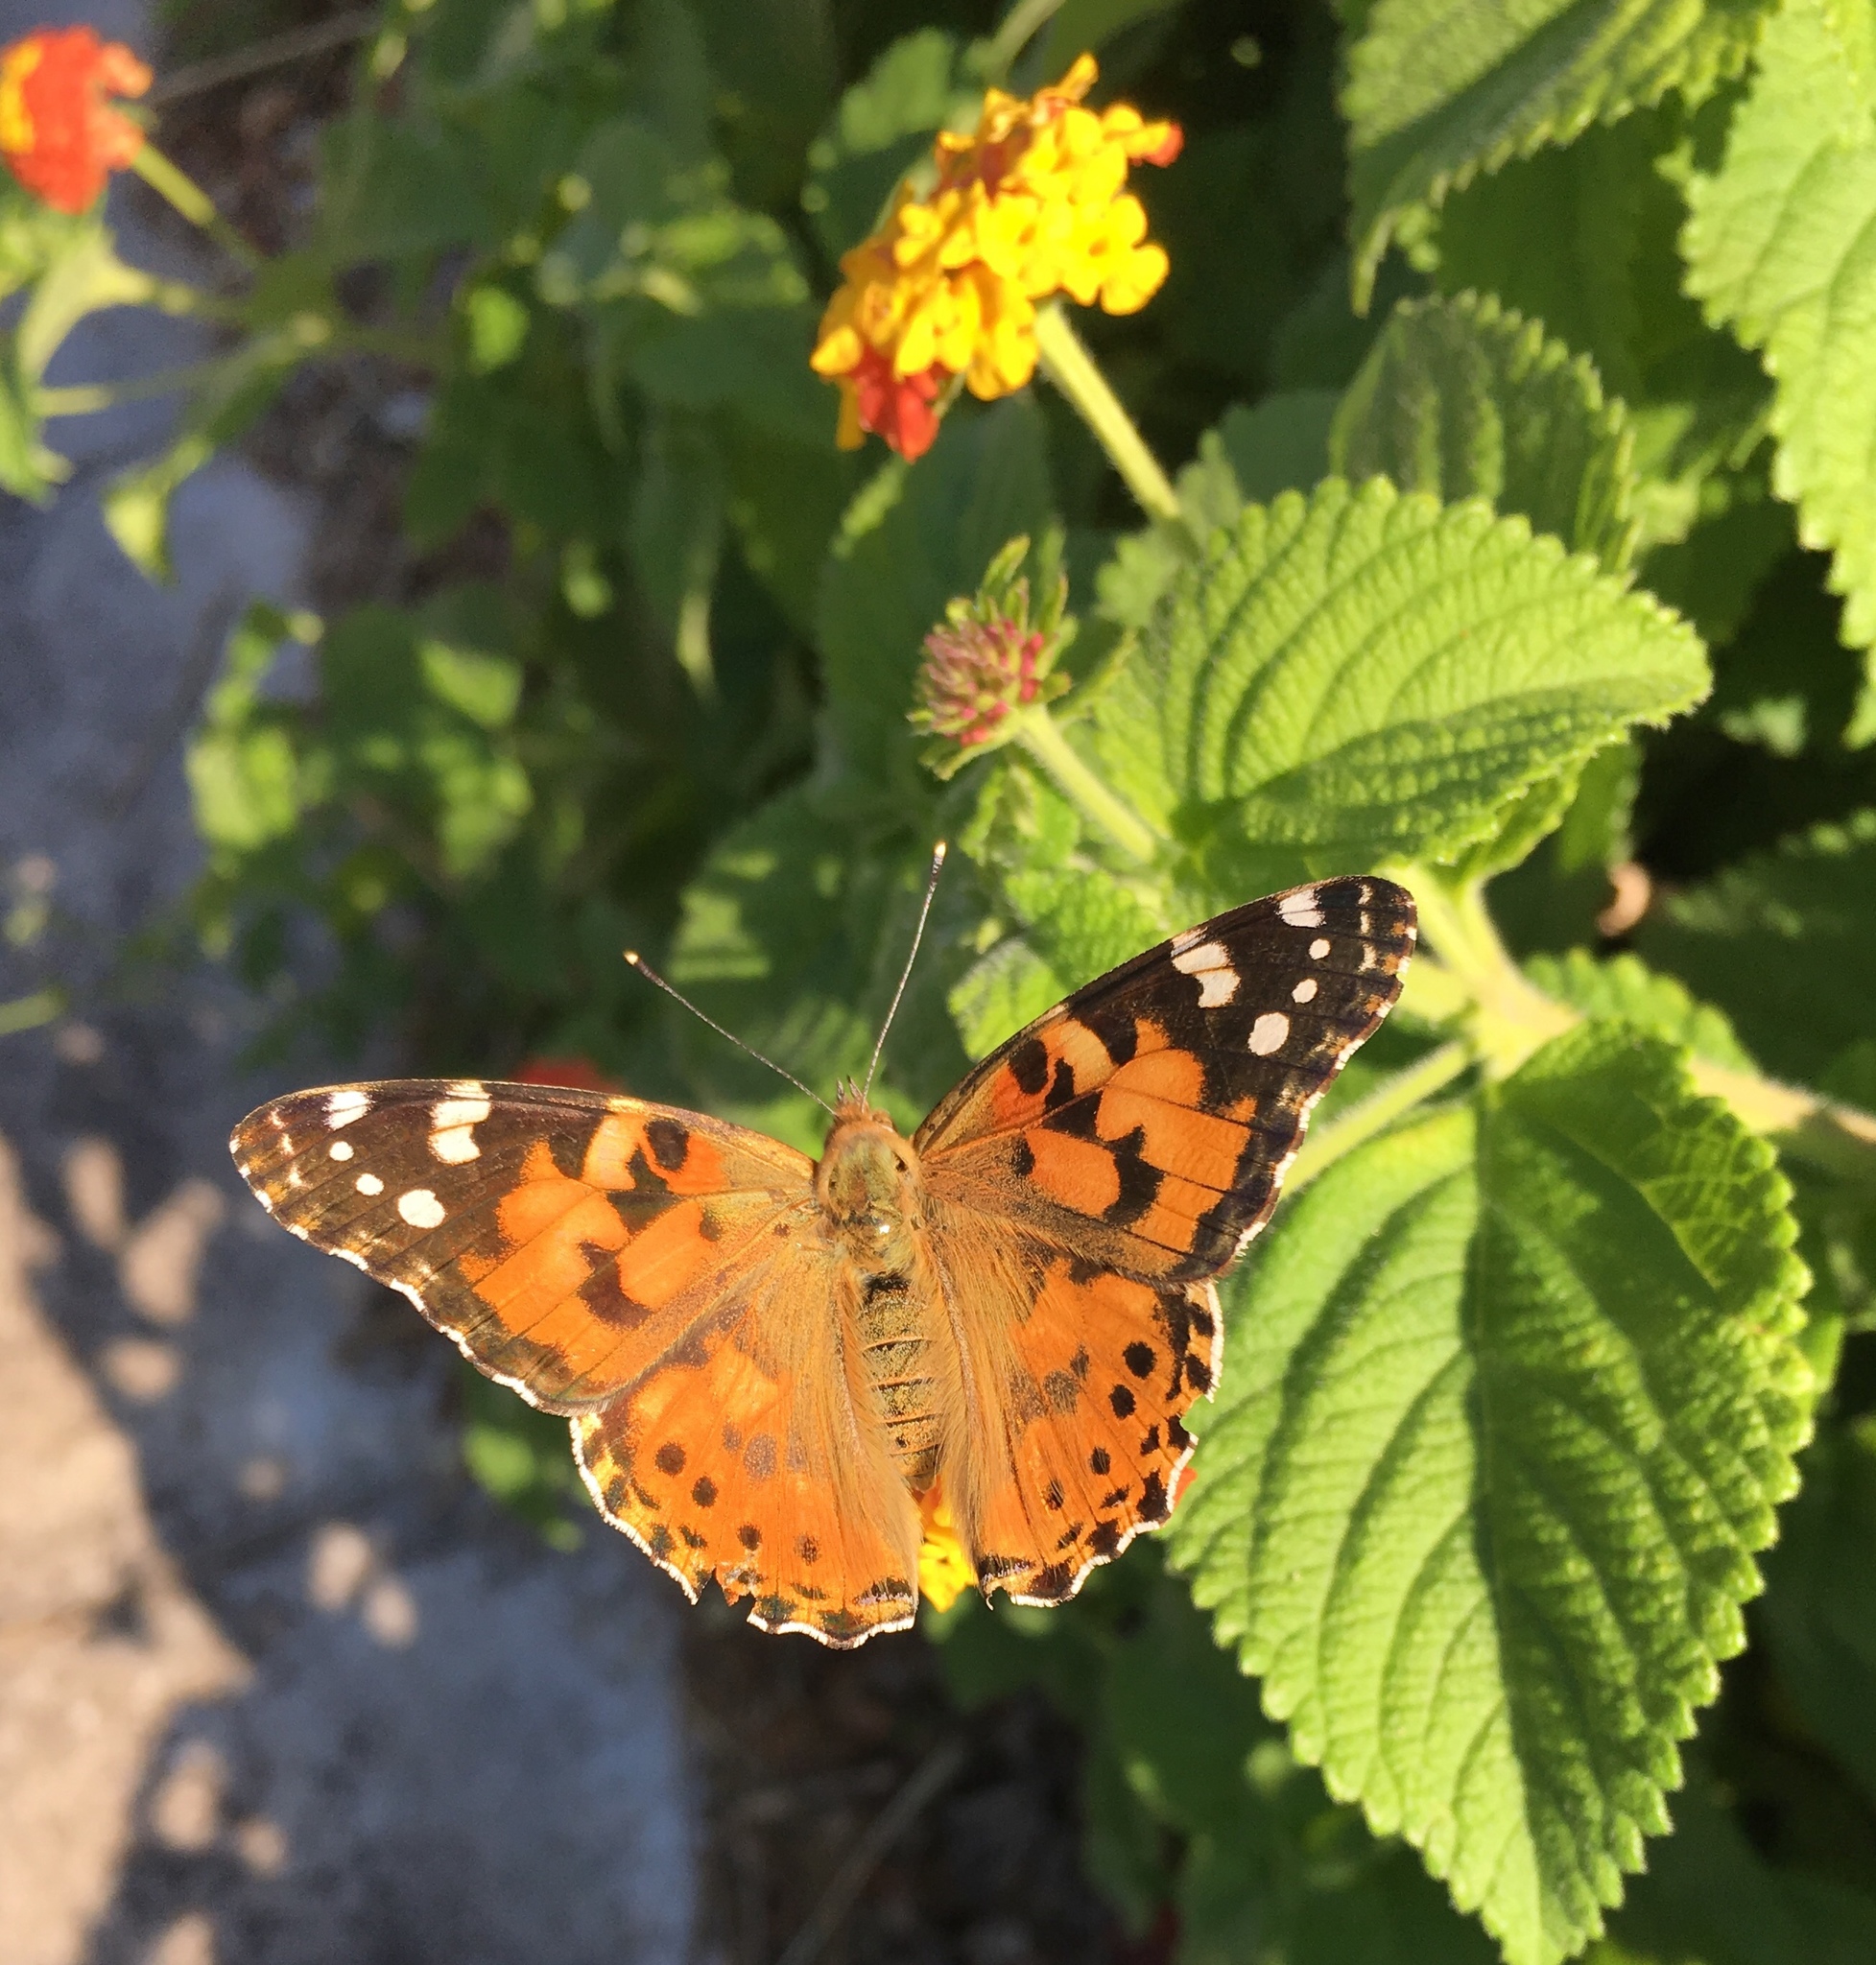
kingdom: Animalia
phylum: Arthropoda
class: Insecta
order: Lepidoptera
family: Nymphalidae
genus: Vanessa
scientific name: Vanessa cardui
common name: Painted lady
